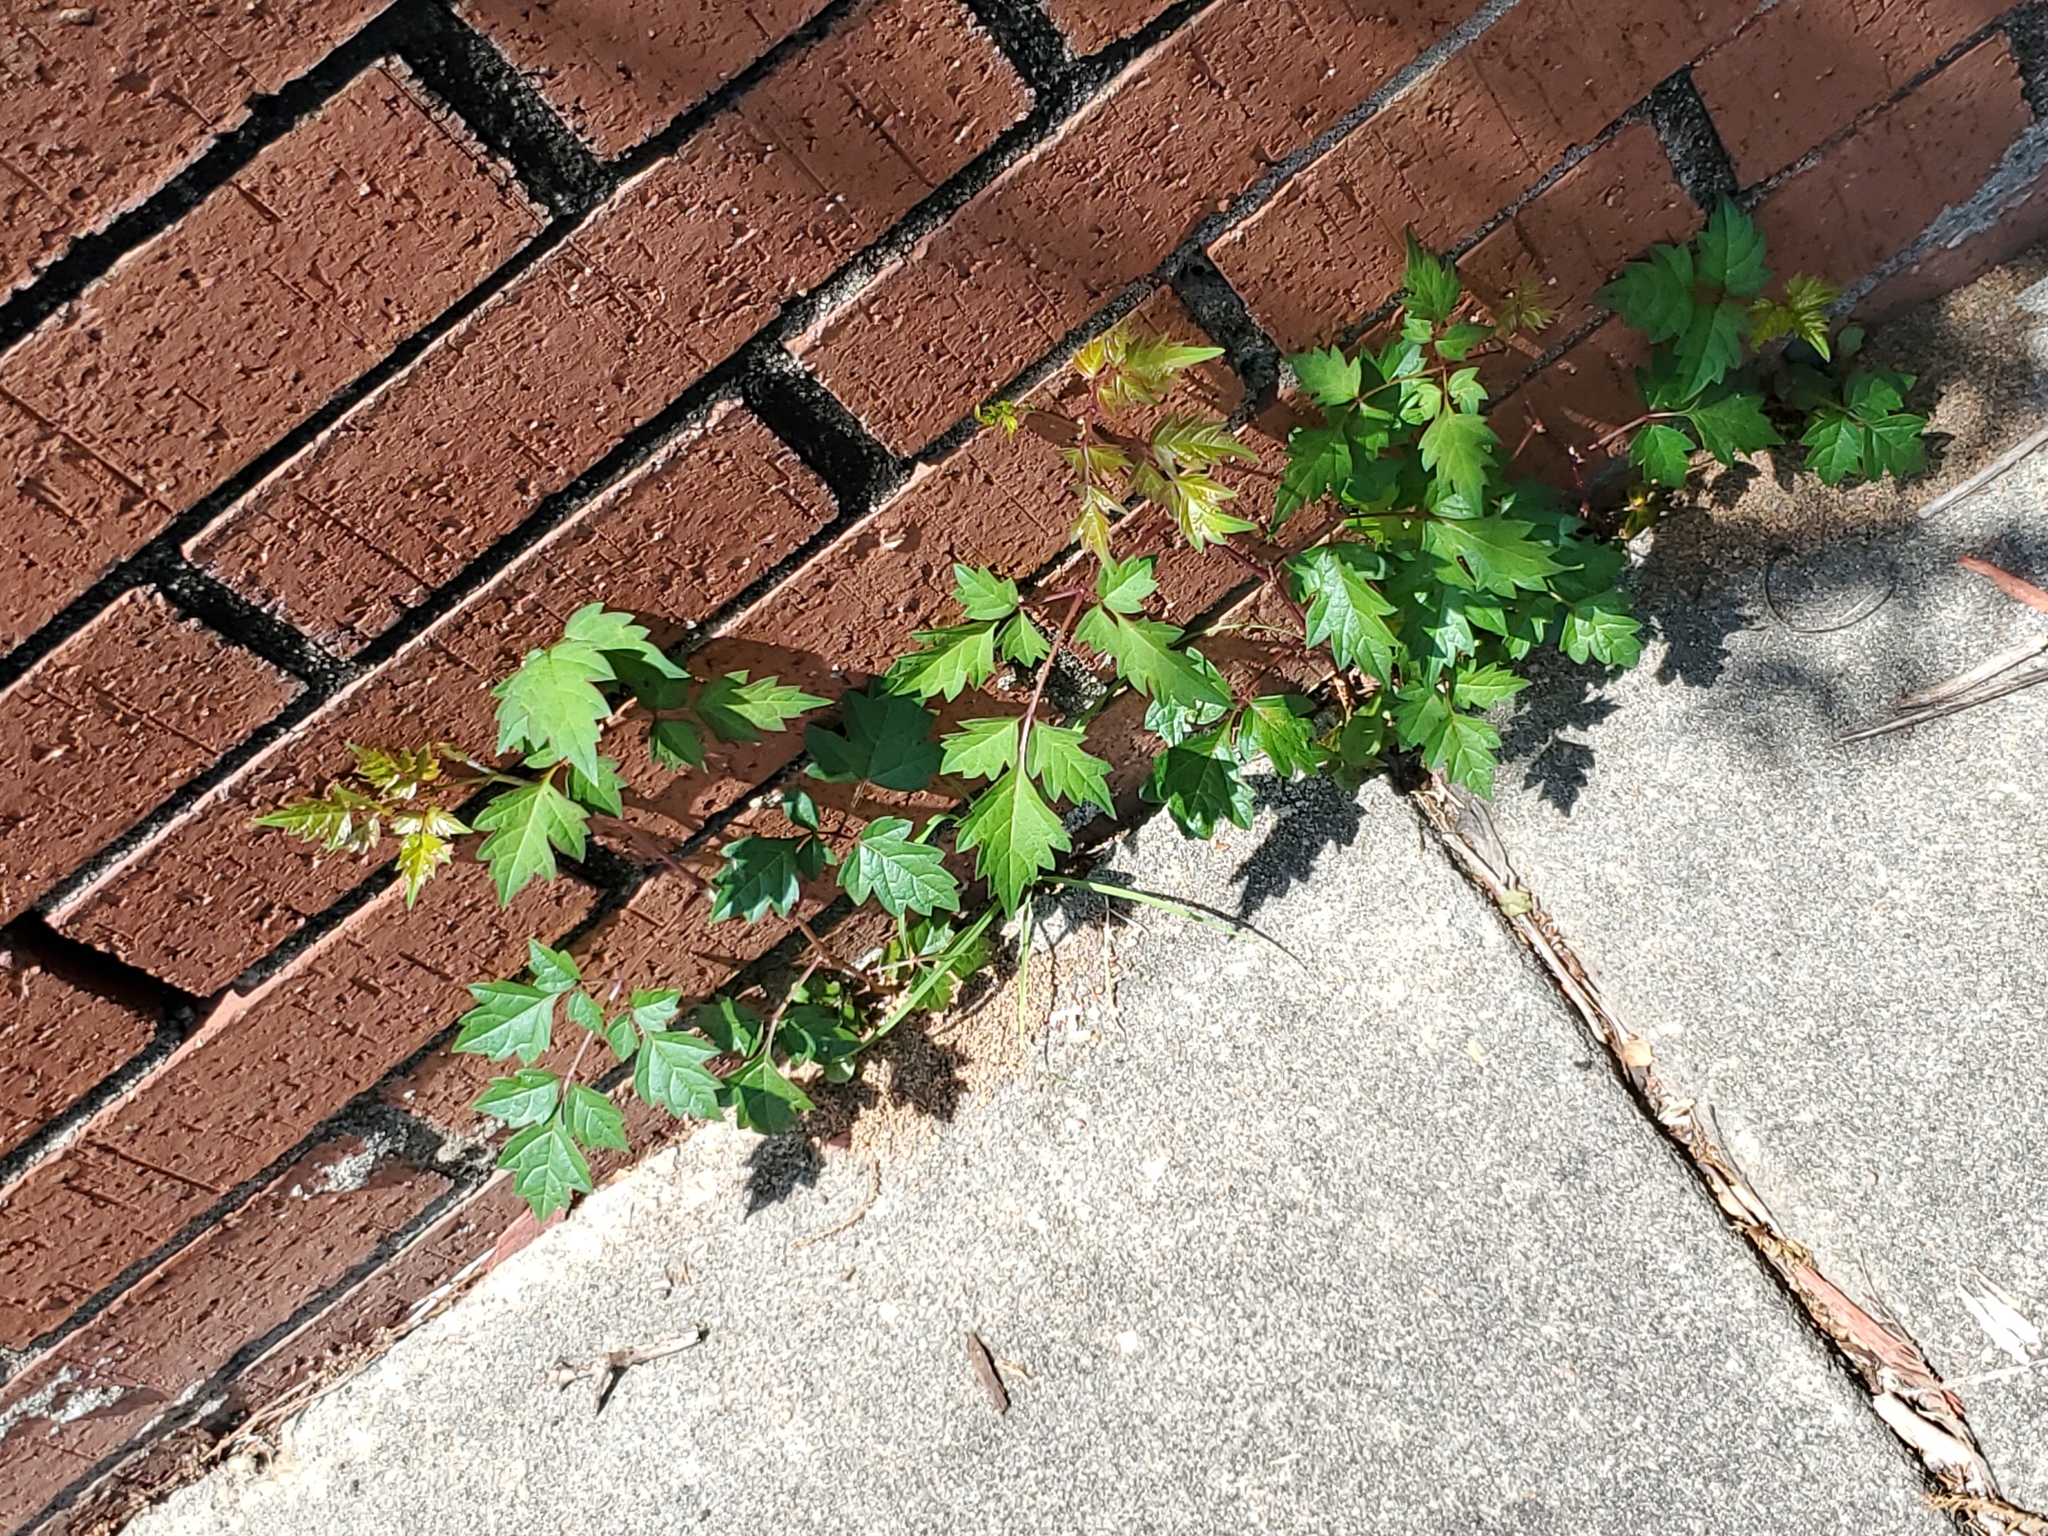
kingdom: Plantae
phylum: Tracheophyta
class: Magnoliopsida
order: Vitales
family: Vitaceae
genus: Nekemias
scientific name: Nekemias arborea
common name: Peppervine
